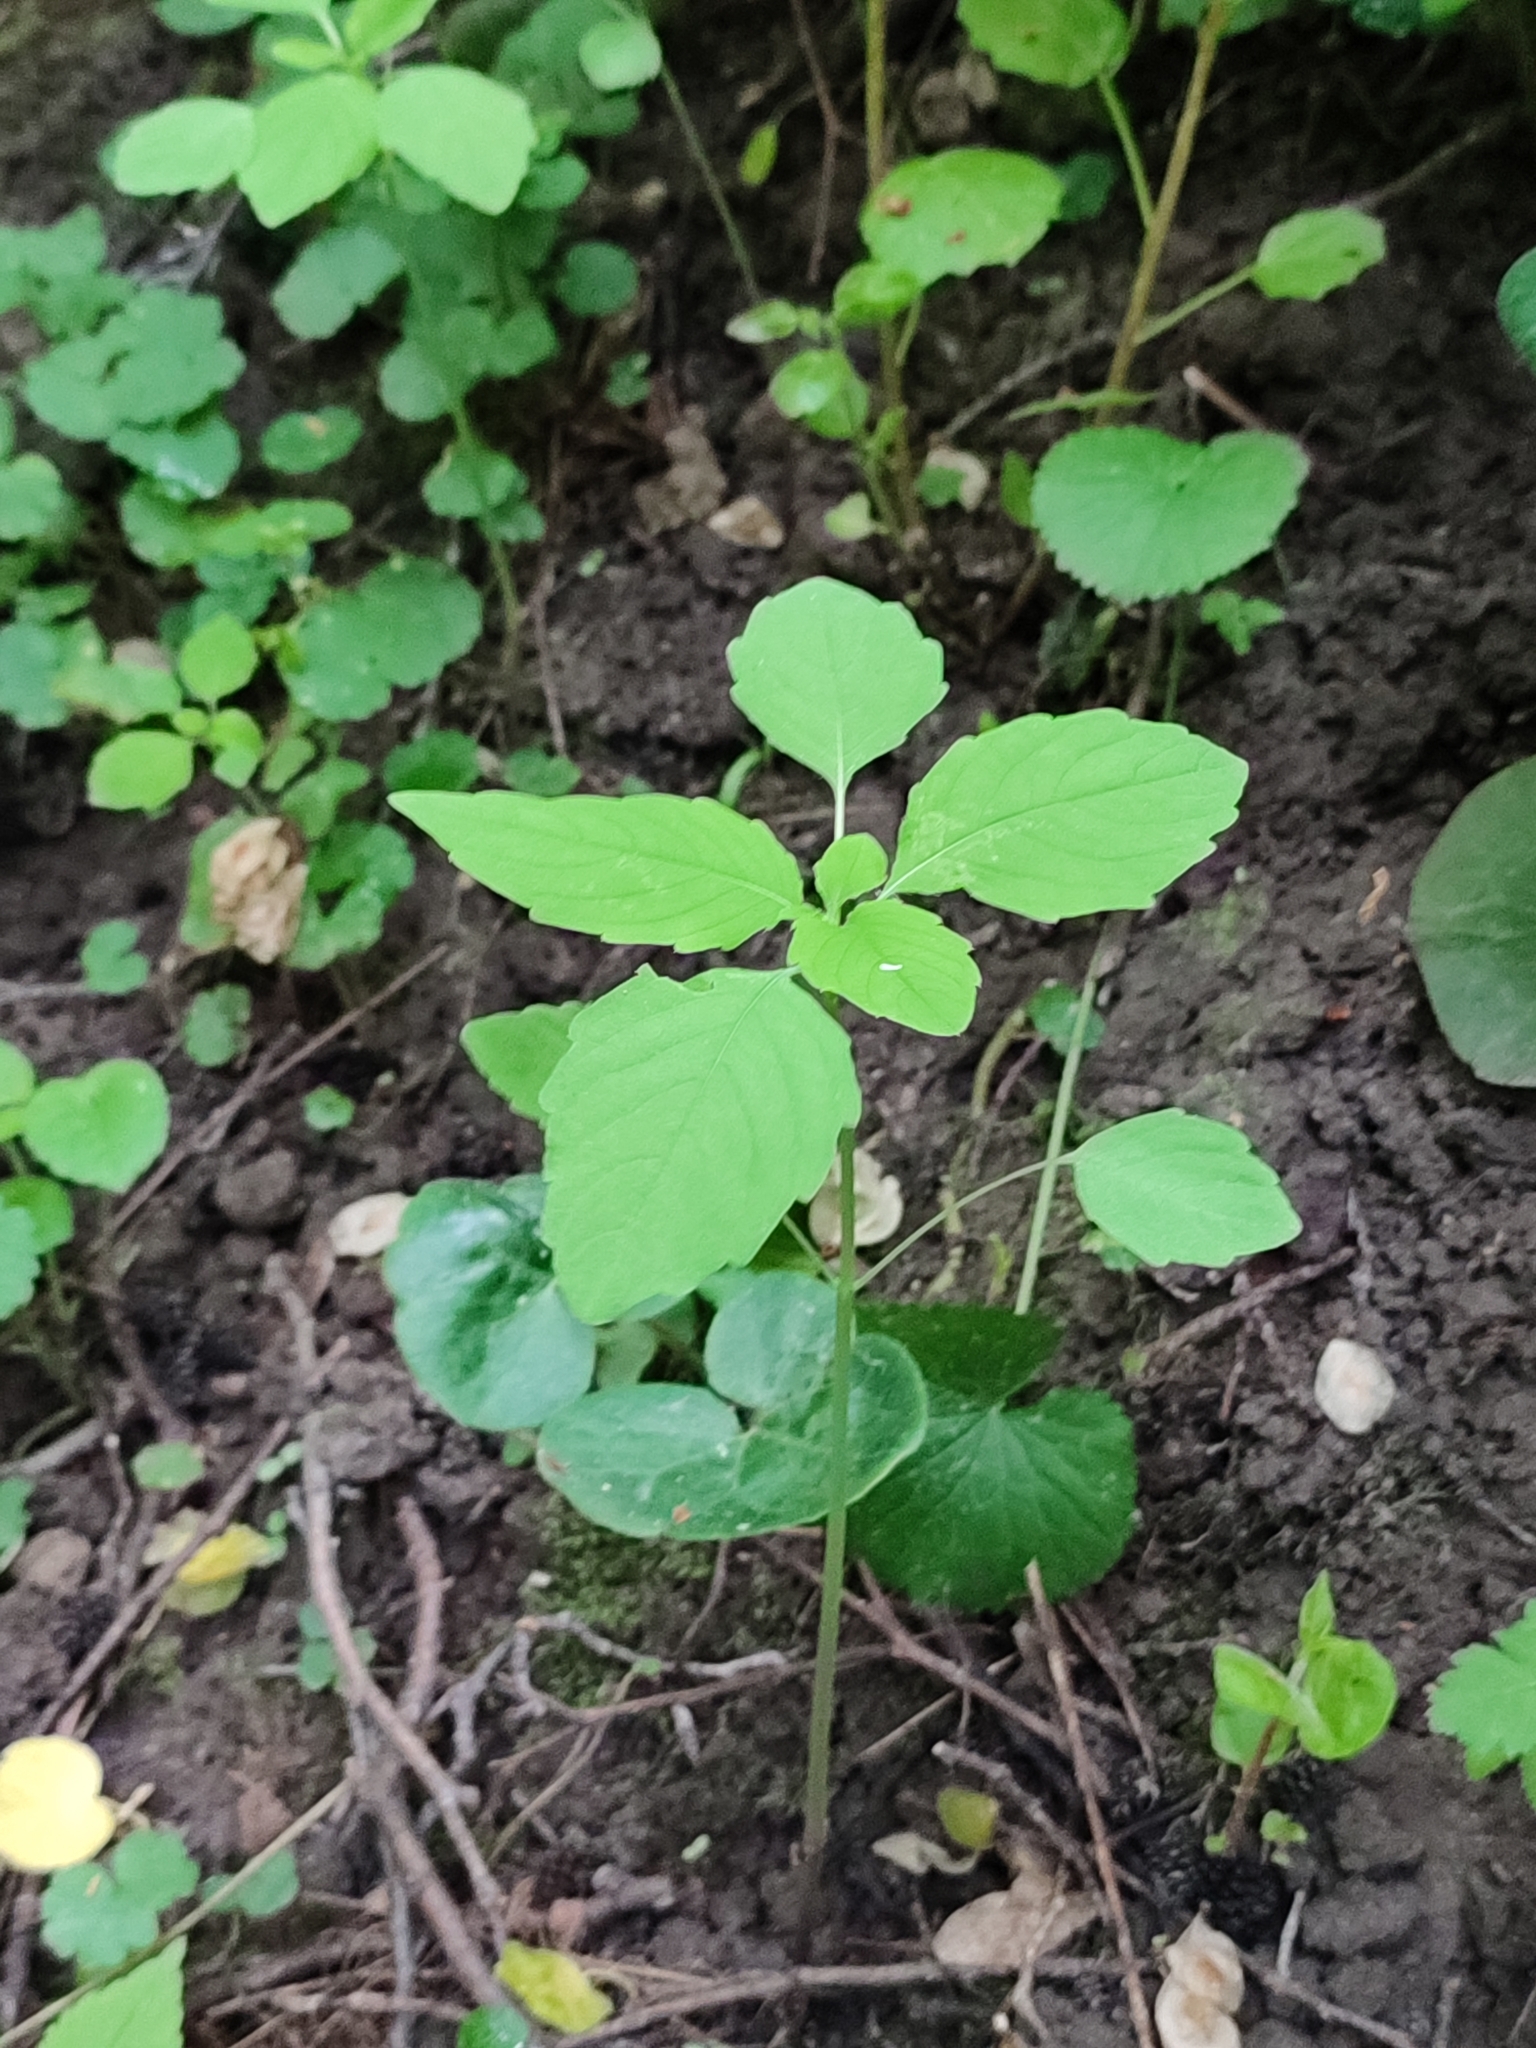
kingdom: Plantae
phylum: Tracheophyta
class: Magnoliopsida
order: Ericales
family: Balsaminaceae
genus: Impatiens
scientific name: Impatiens noli-tangere
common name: Touch-me-not balsam
